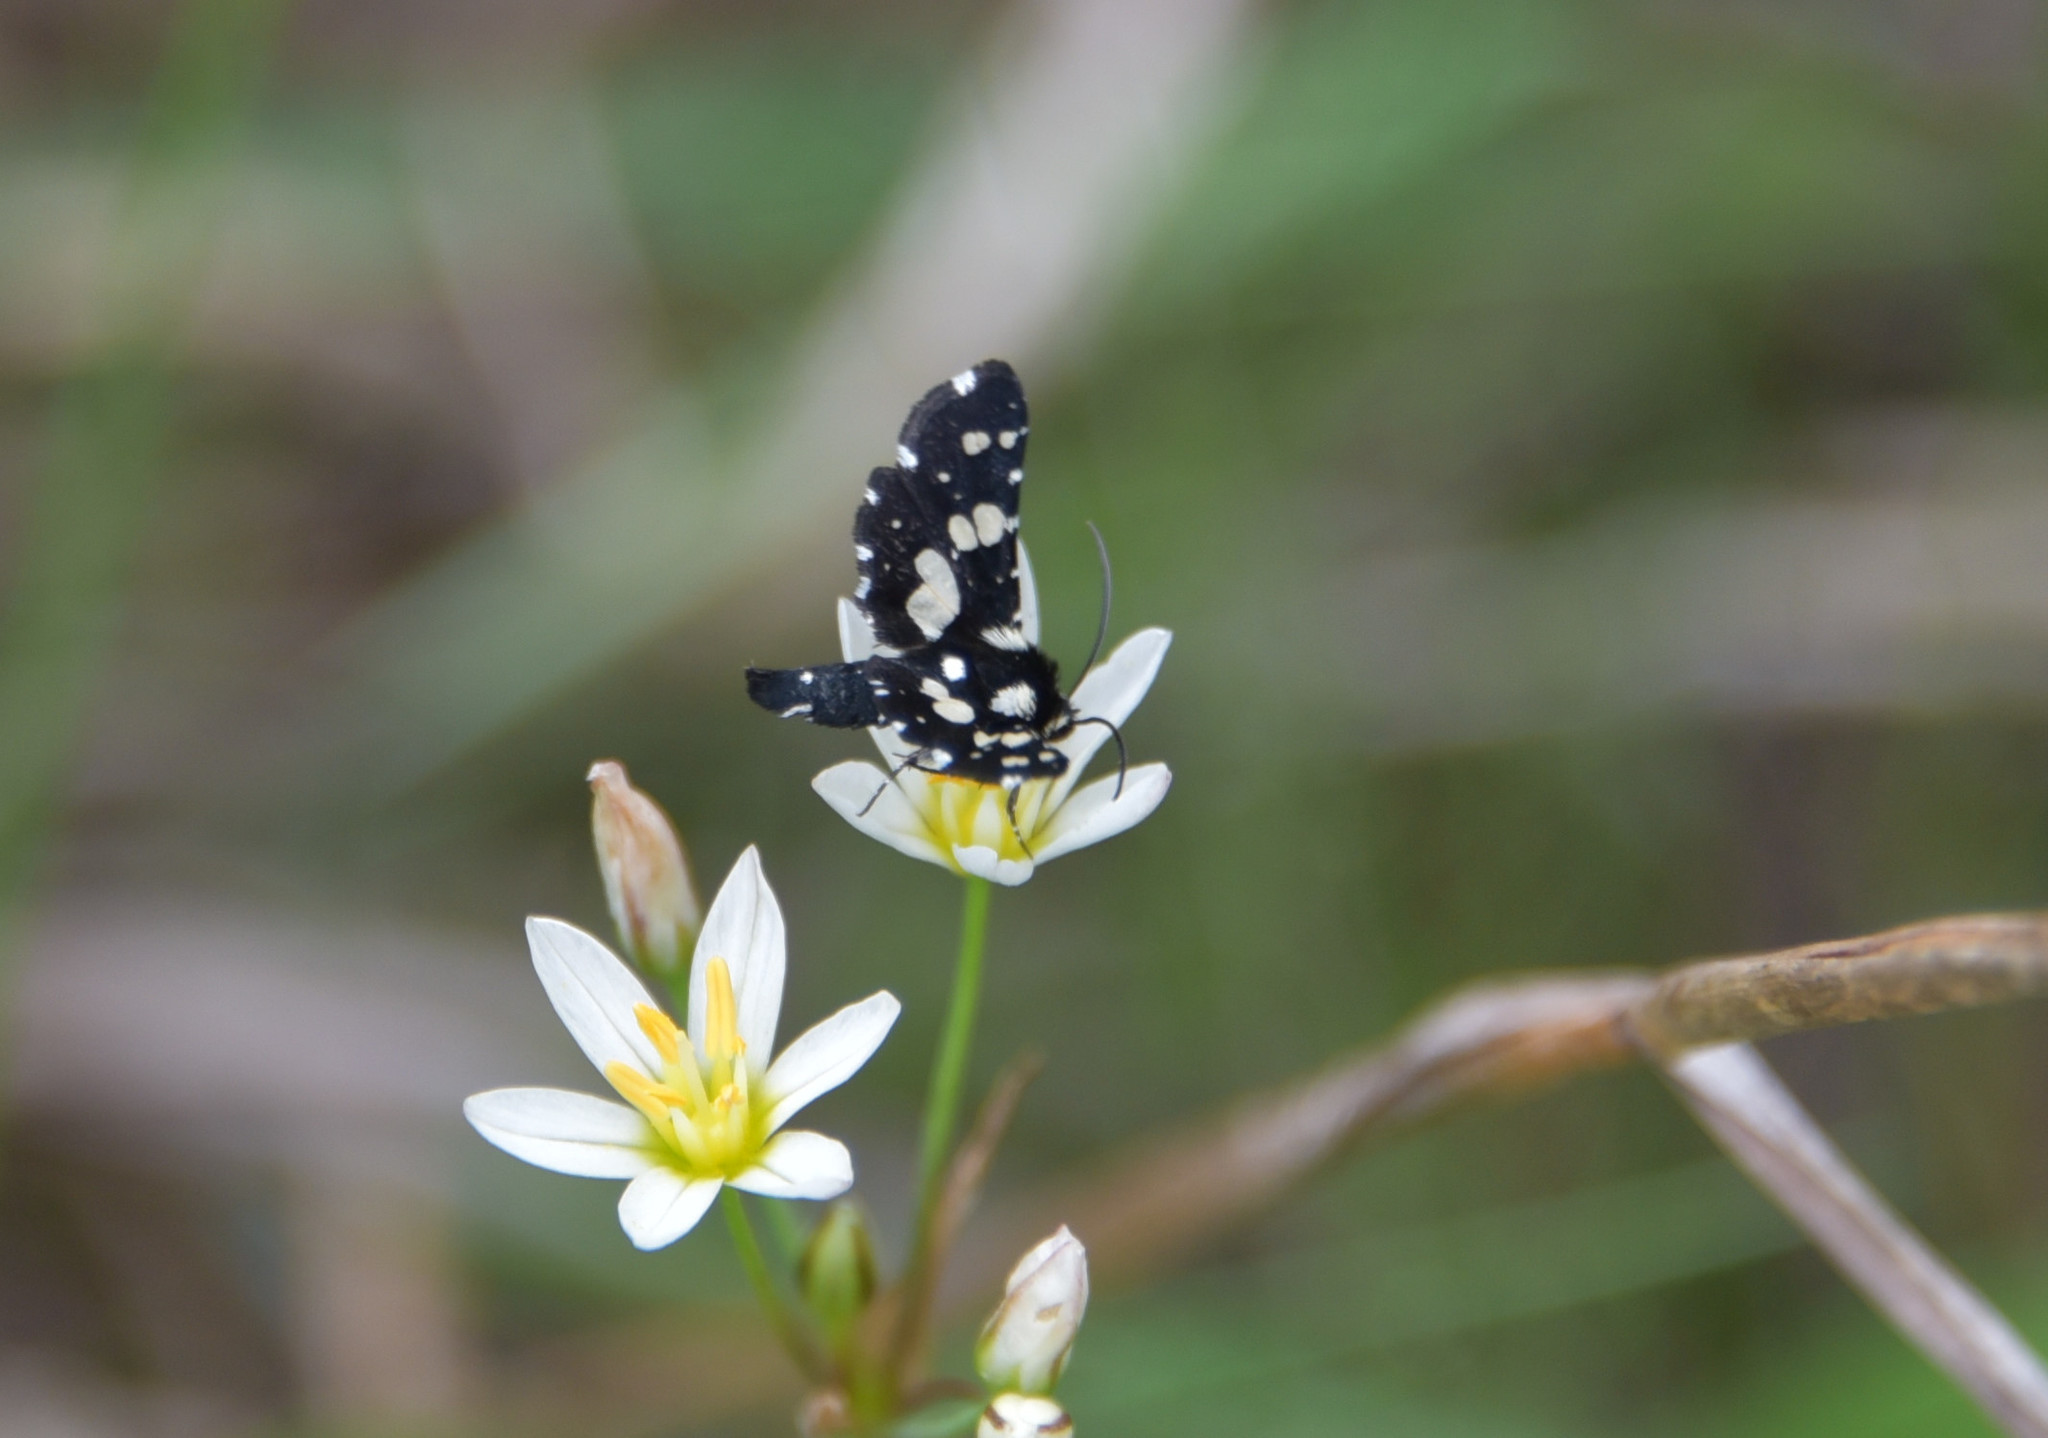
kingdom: Animalia
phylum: Arthropoda
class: Insecta
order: Lepidoptera
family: Thyrididae
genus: Pseudothyris
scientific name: Pseudothyris sepulchralis
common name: Mournful thyris moth
